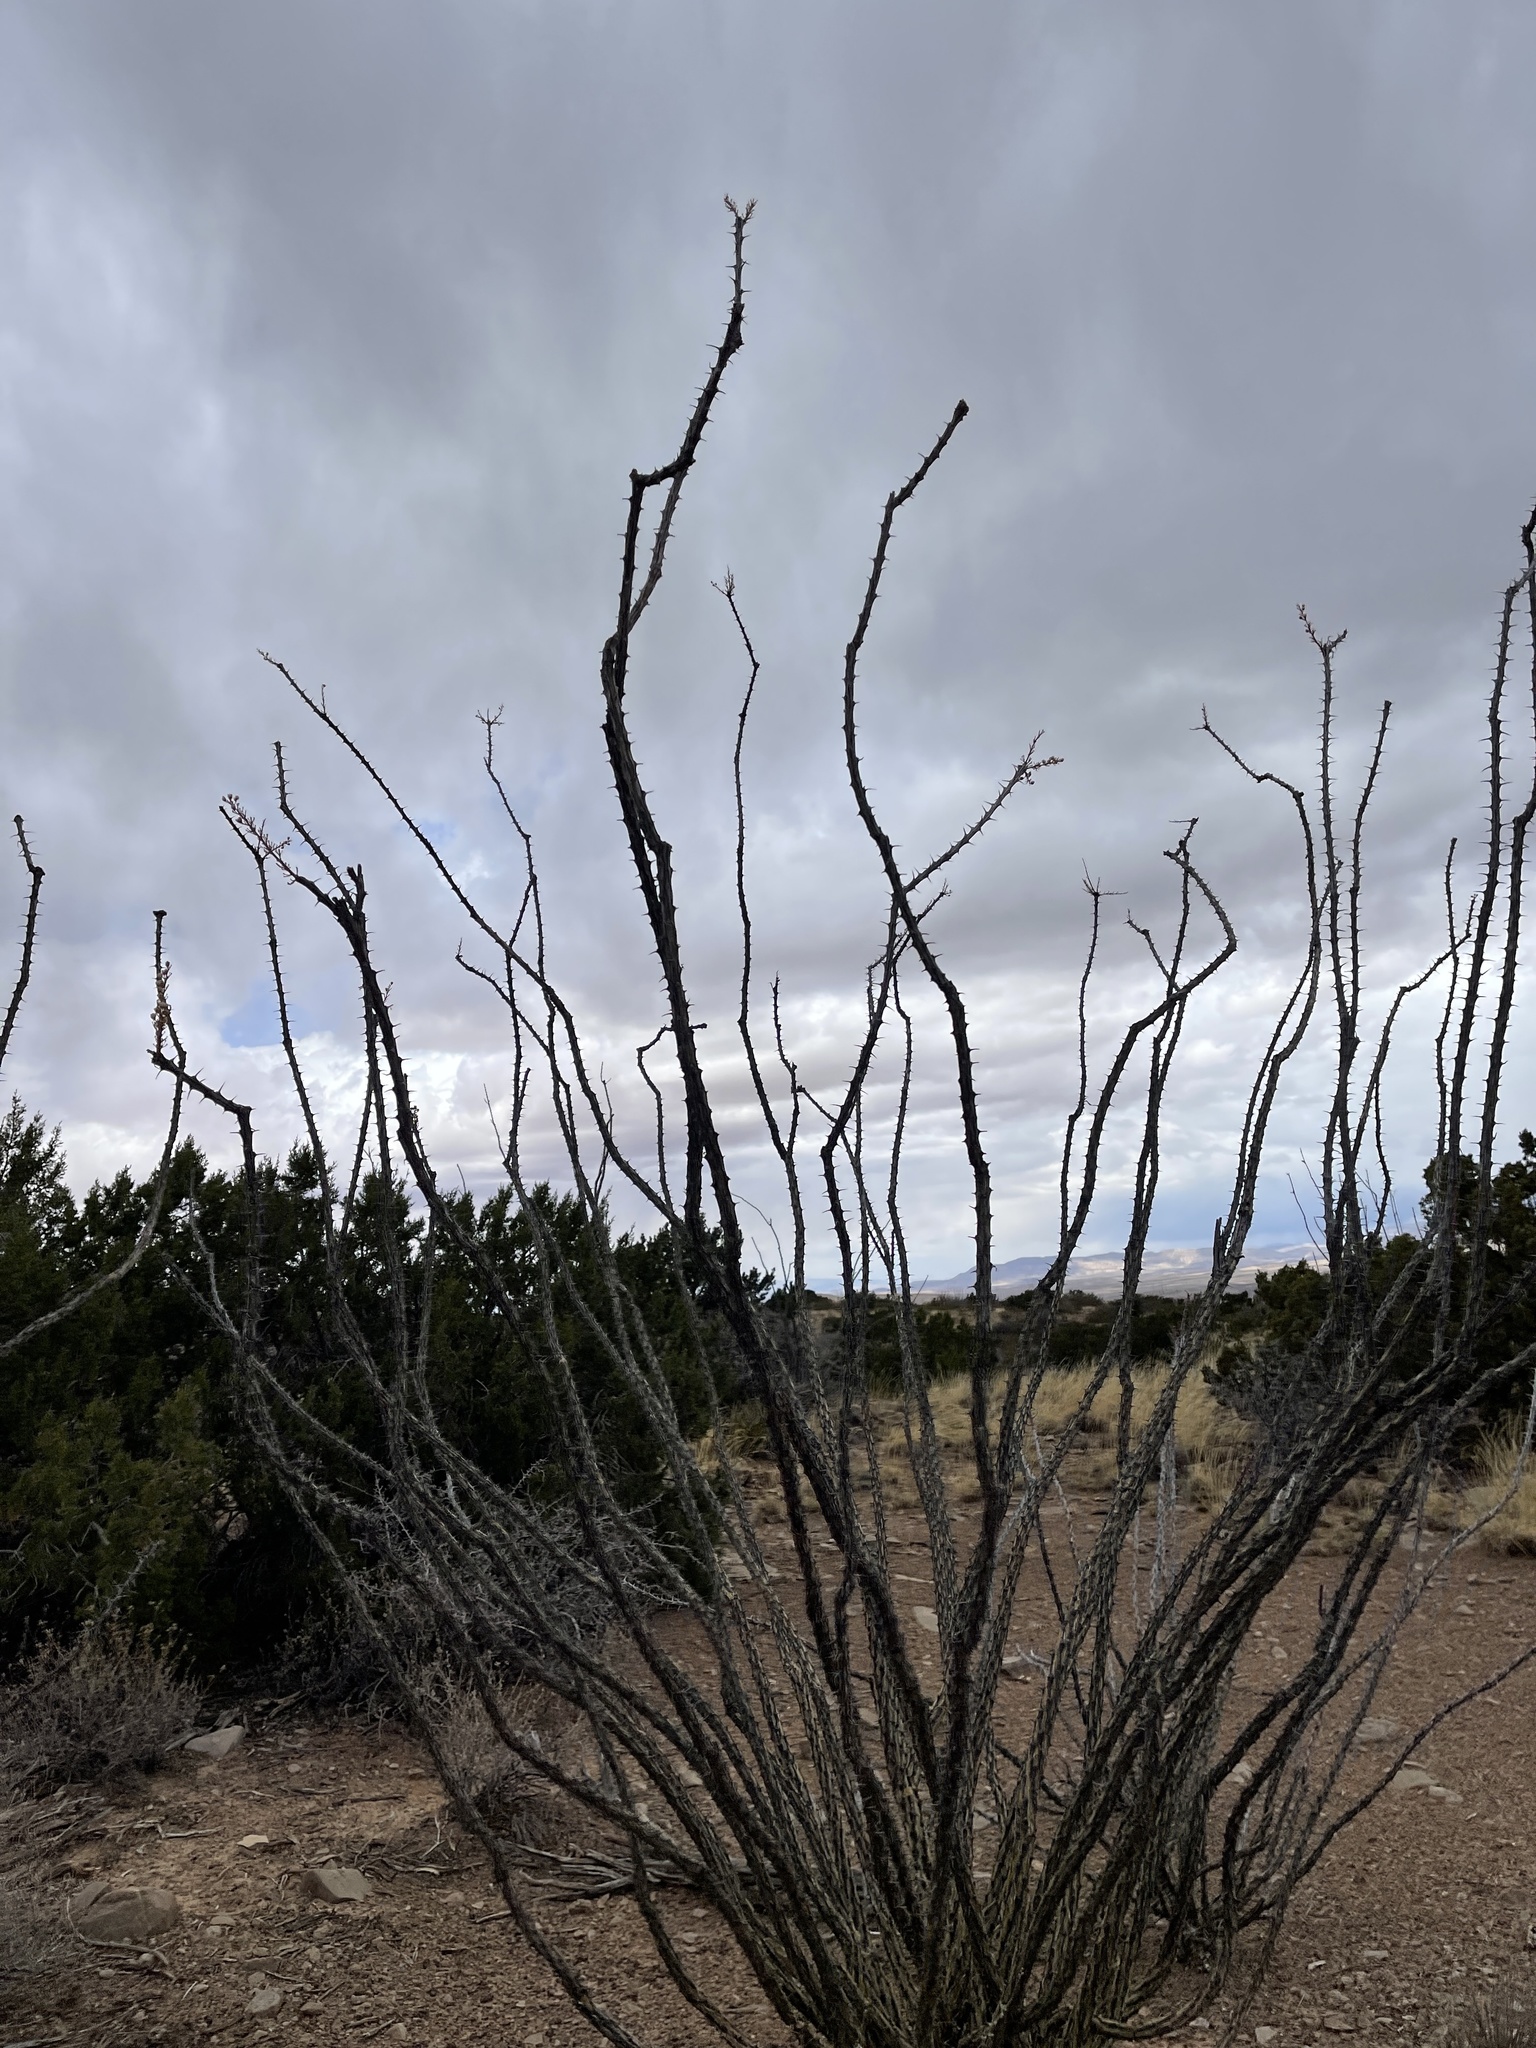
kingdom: Plantae
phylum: Tracheophyta
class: Magnoliopsida
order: Ericales
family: Fouquieriaceae
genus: Fouquieria
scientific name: Fouquieria splendens
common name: Vine-cactus
